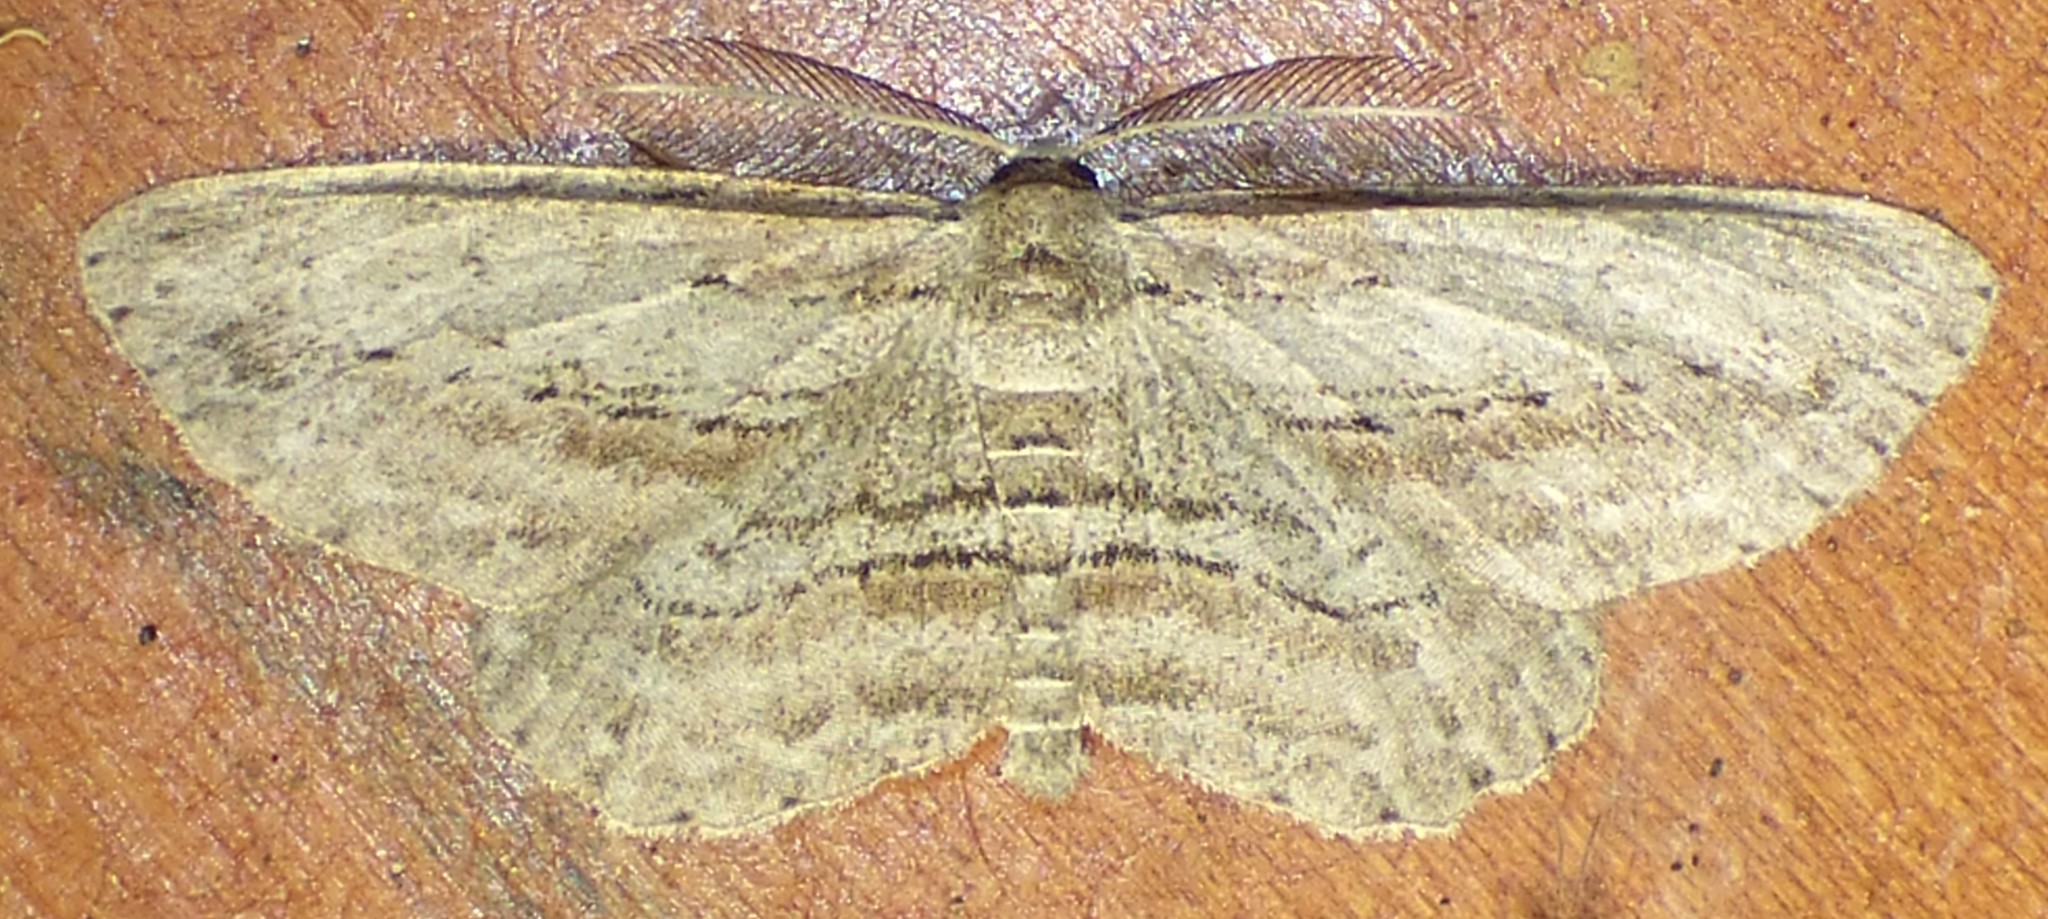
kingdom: Animalia
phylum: Arthropoda
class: Insecta
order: Lepidoptera
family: Geometridae
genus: Glena
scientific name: Glena plumosaria
